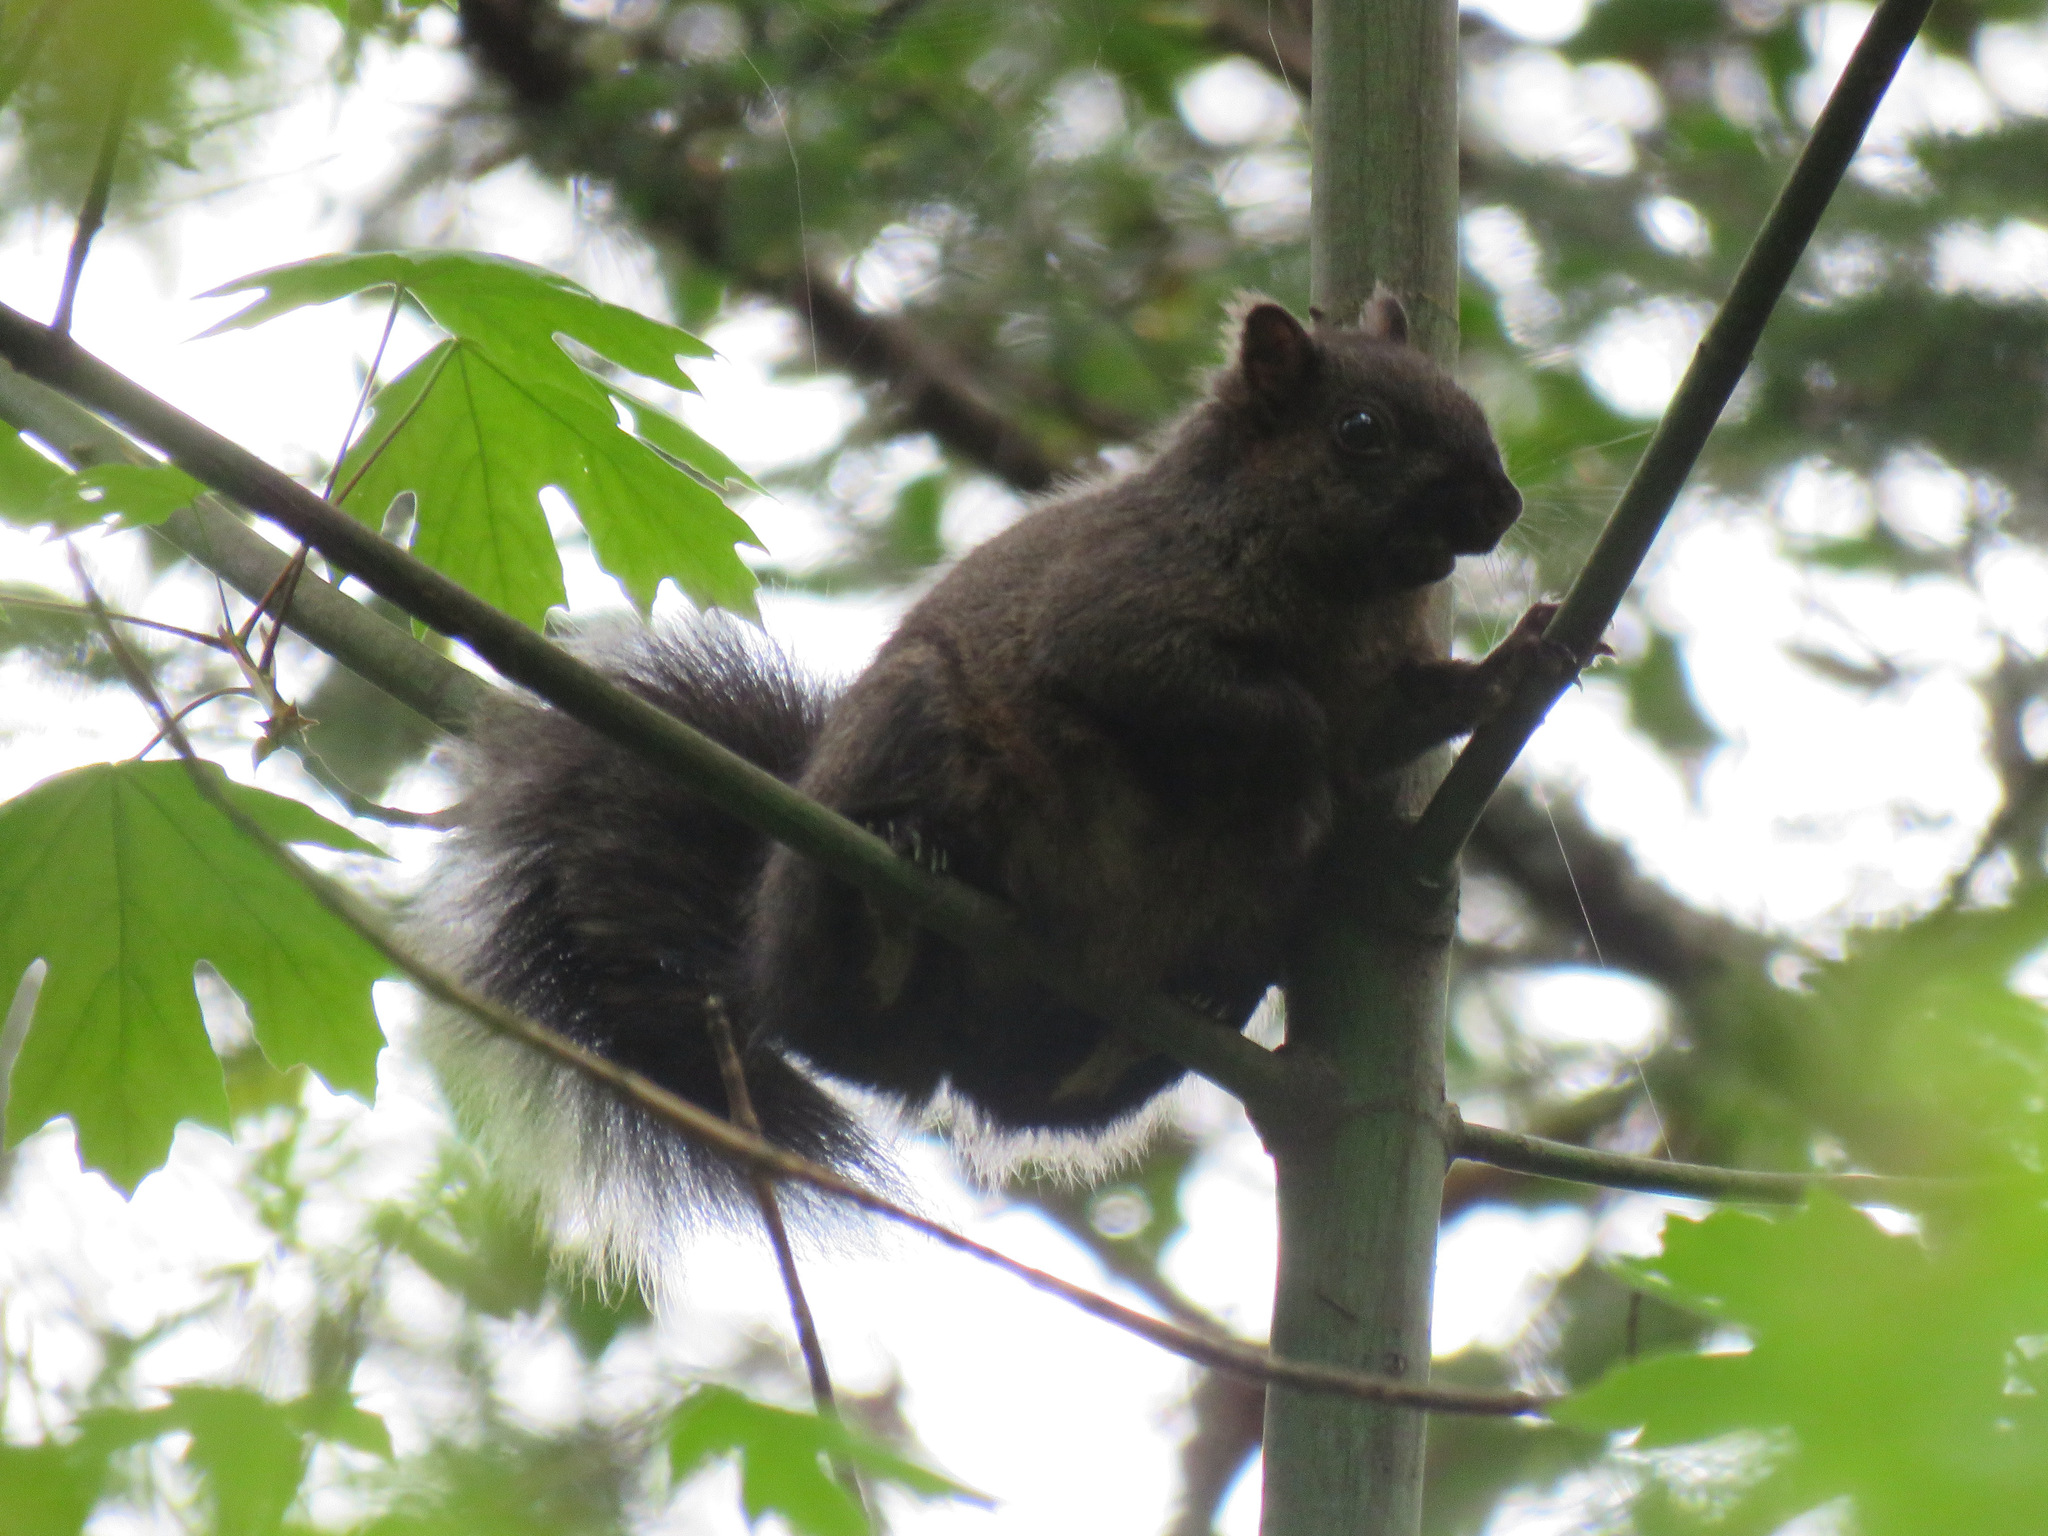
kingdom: Animalia
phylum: Chordata
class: Mammalia
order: Rodentia
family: Sciuridae
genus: Sciurus
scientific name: Sciurus carolinensis
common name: Eastern gray squirrel
